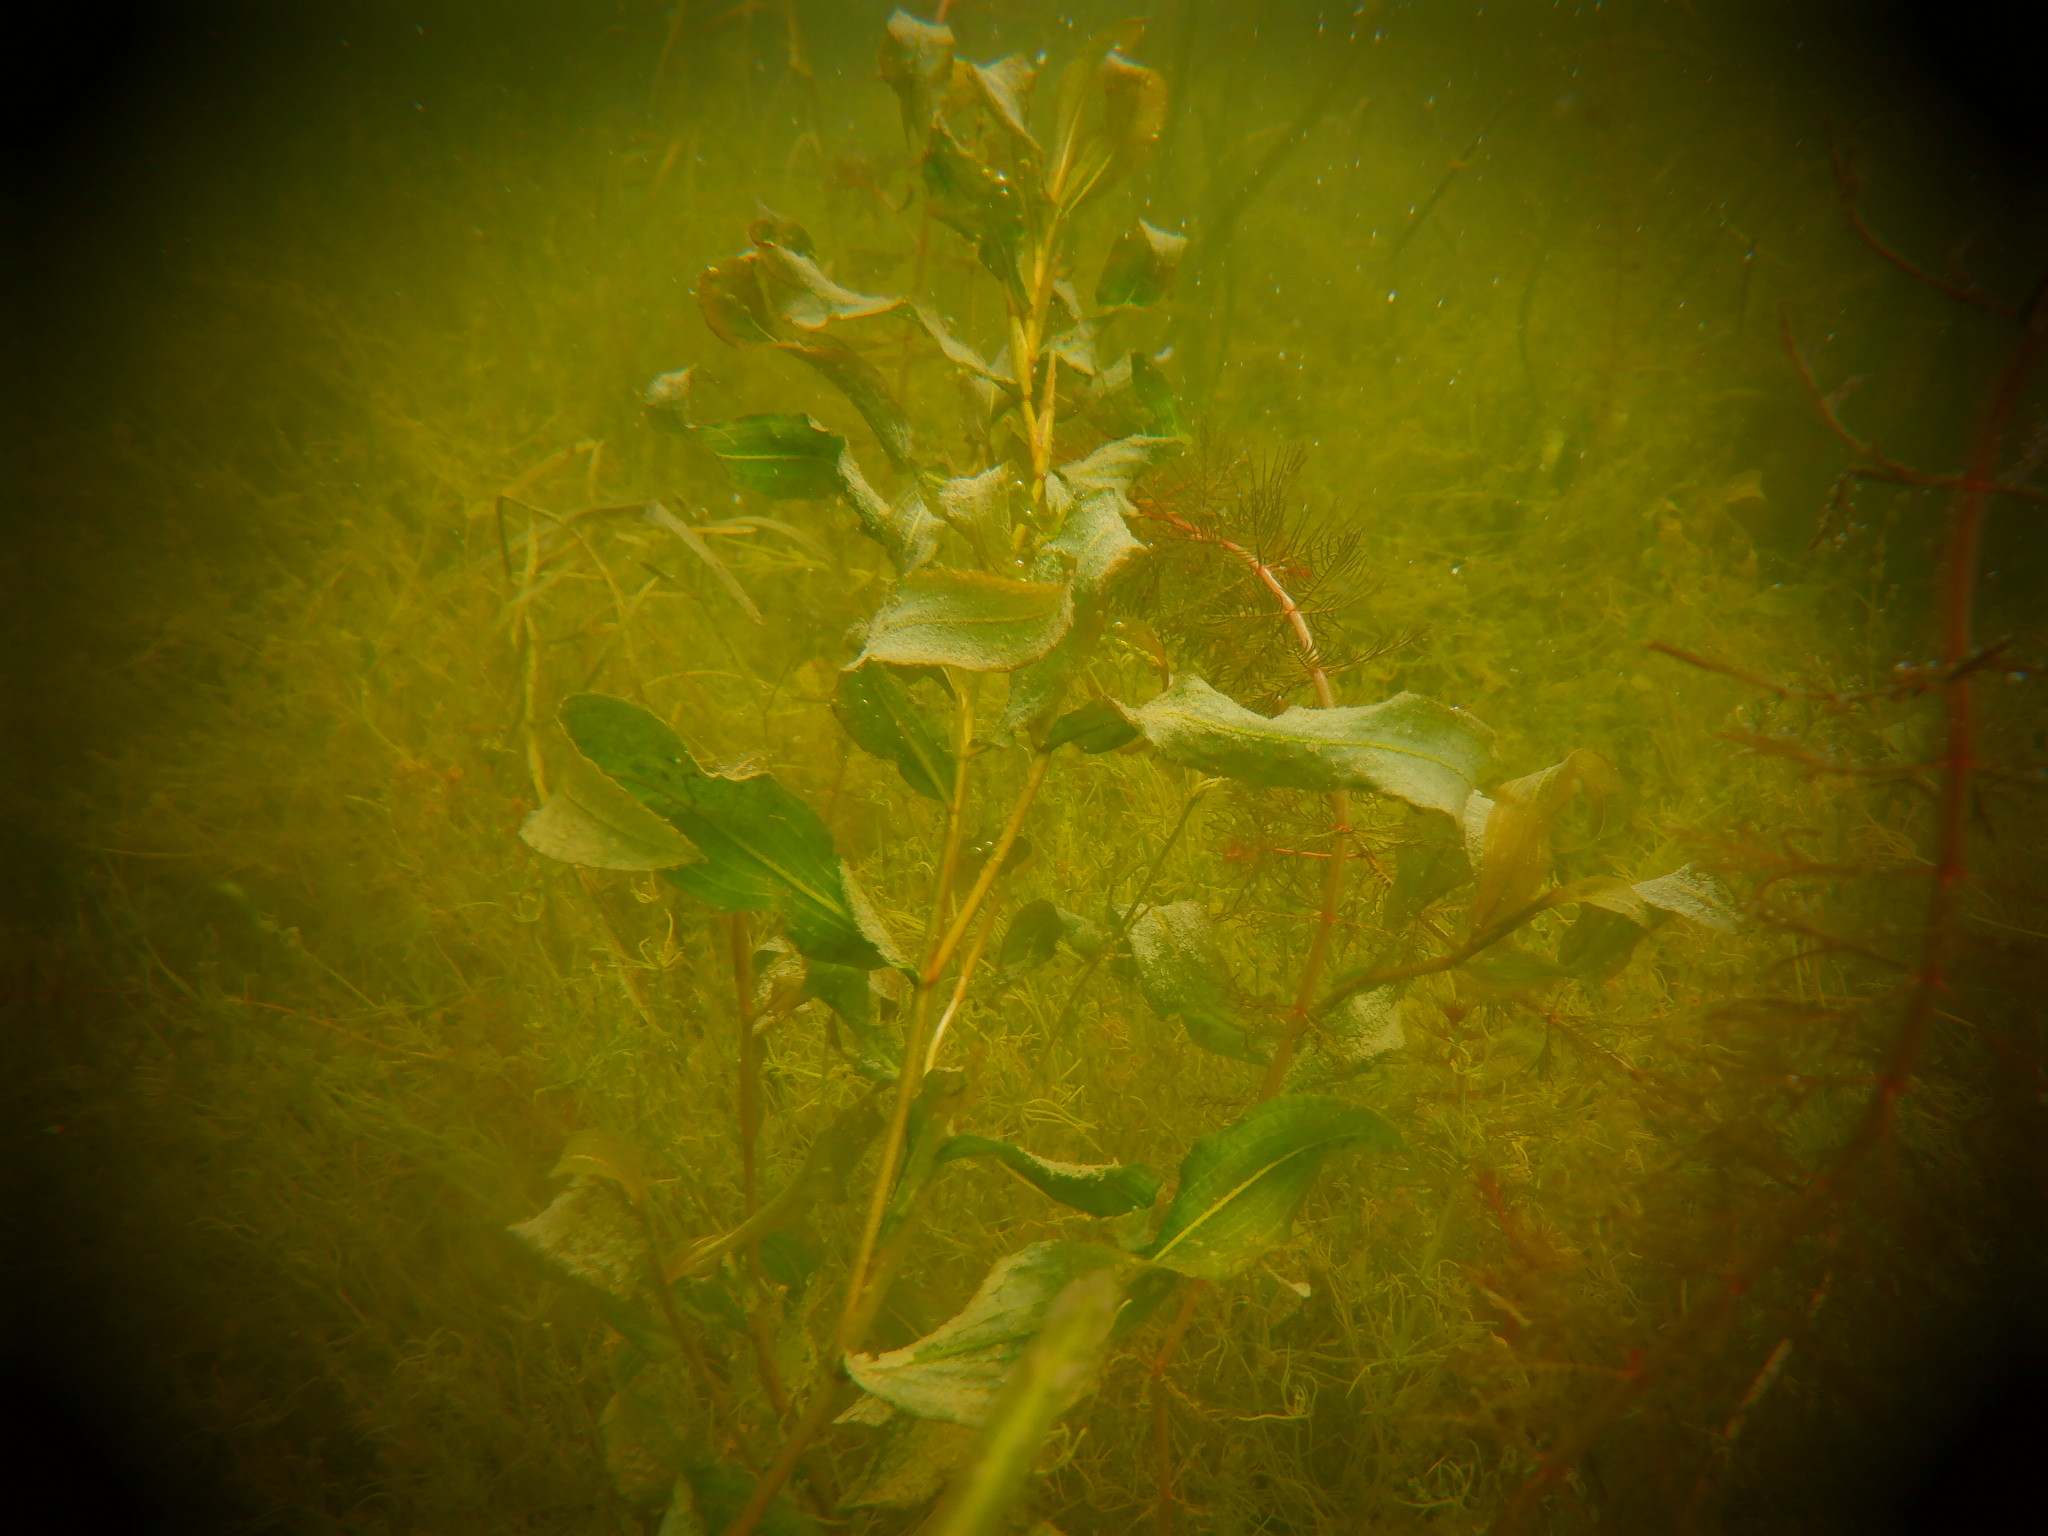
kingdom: Plantae
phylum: Tracheophyta
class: Liliopsida
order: Alismatales
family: Potamogetonaceae
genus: Potamogeton
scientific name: Potamogeton illinoensis
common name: Illinois pondweed
